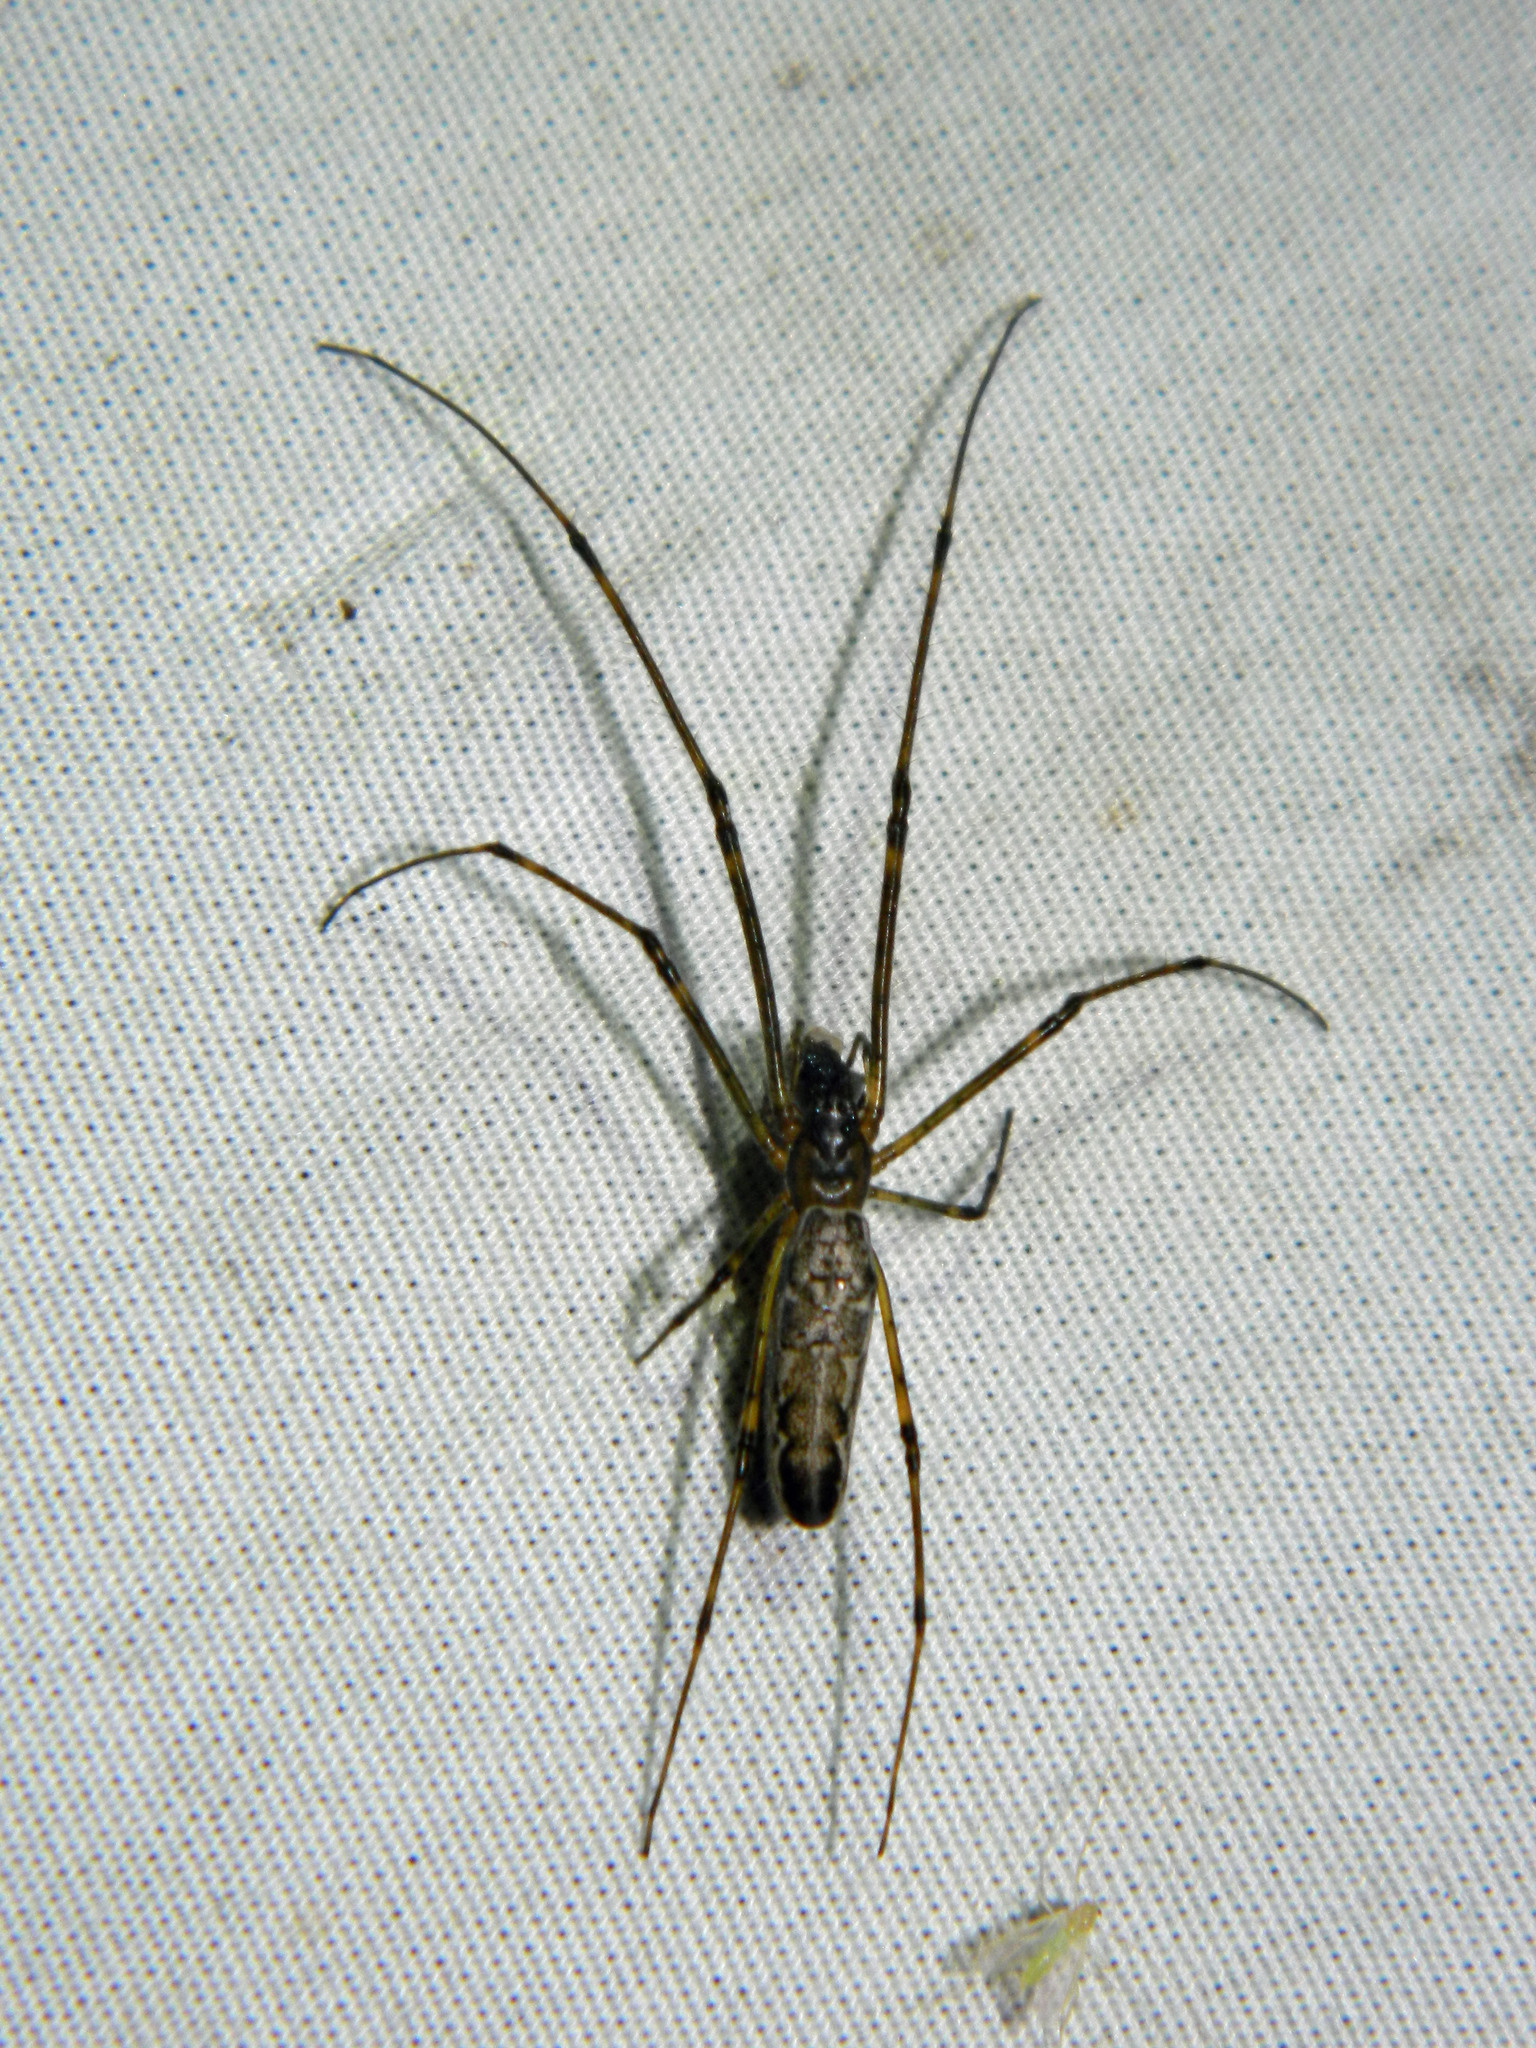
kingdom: Animalia
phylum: Arthropoda
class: Arachnida
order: Araneae
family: Tetragnathidae
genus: Tetragnatha
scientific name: Tetragnatha
